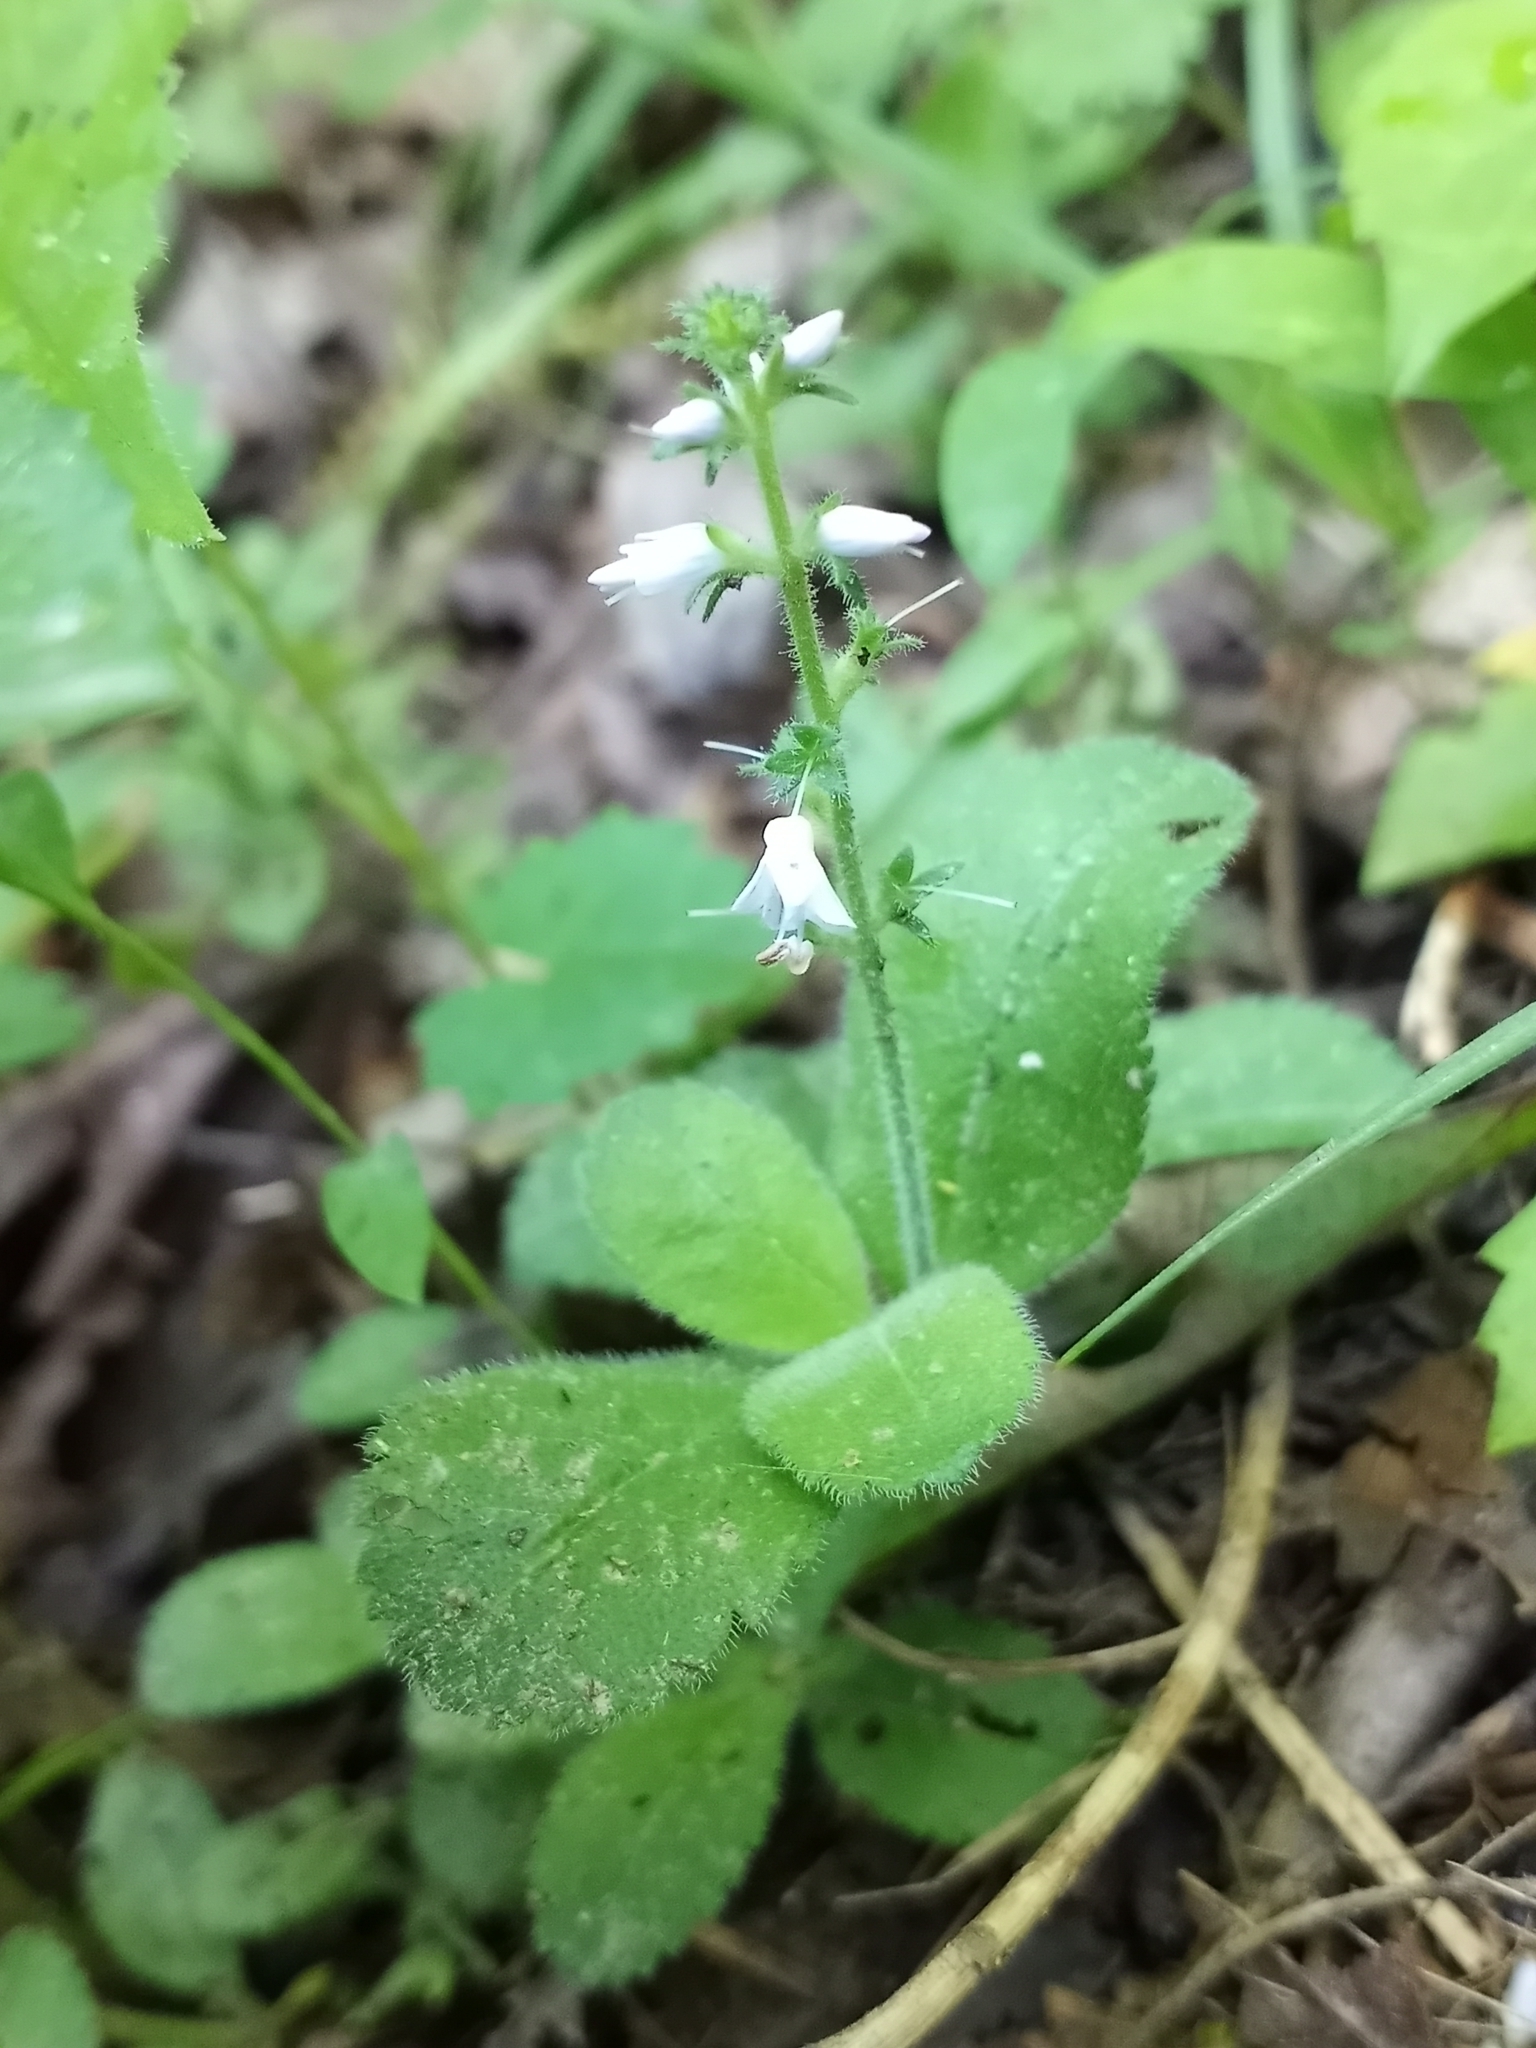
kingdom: Plantae
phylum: Tracheophyta
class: Magnoliopsida
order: Lamiales
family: Plantaginaceae
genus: Veronica
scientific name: Veronica officinalis
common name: Common speedwell
